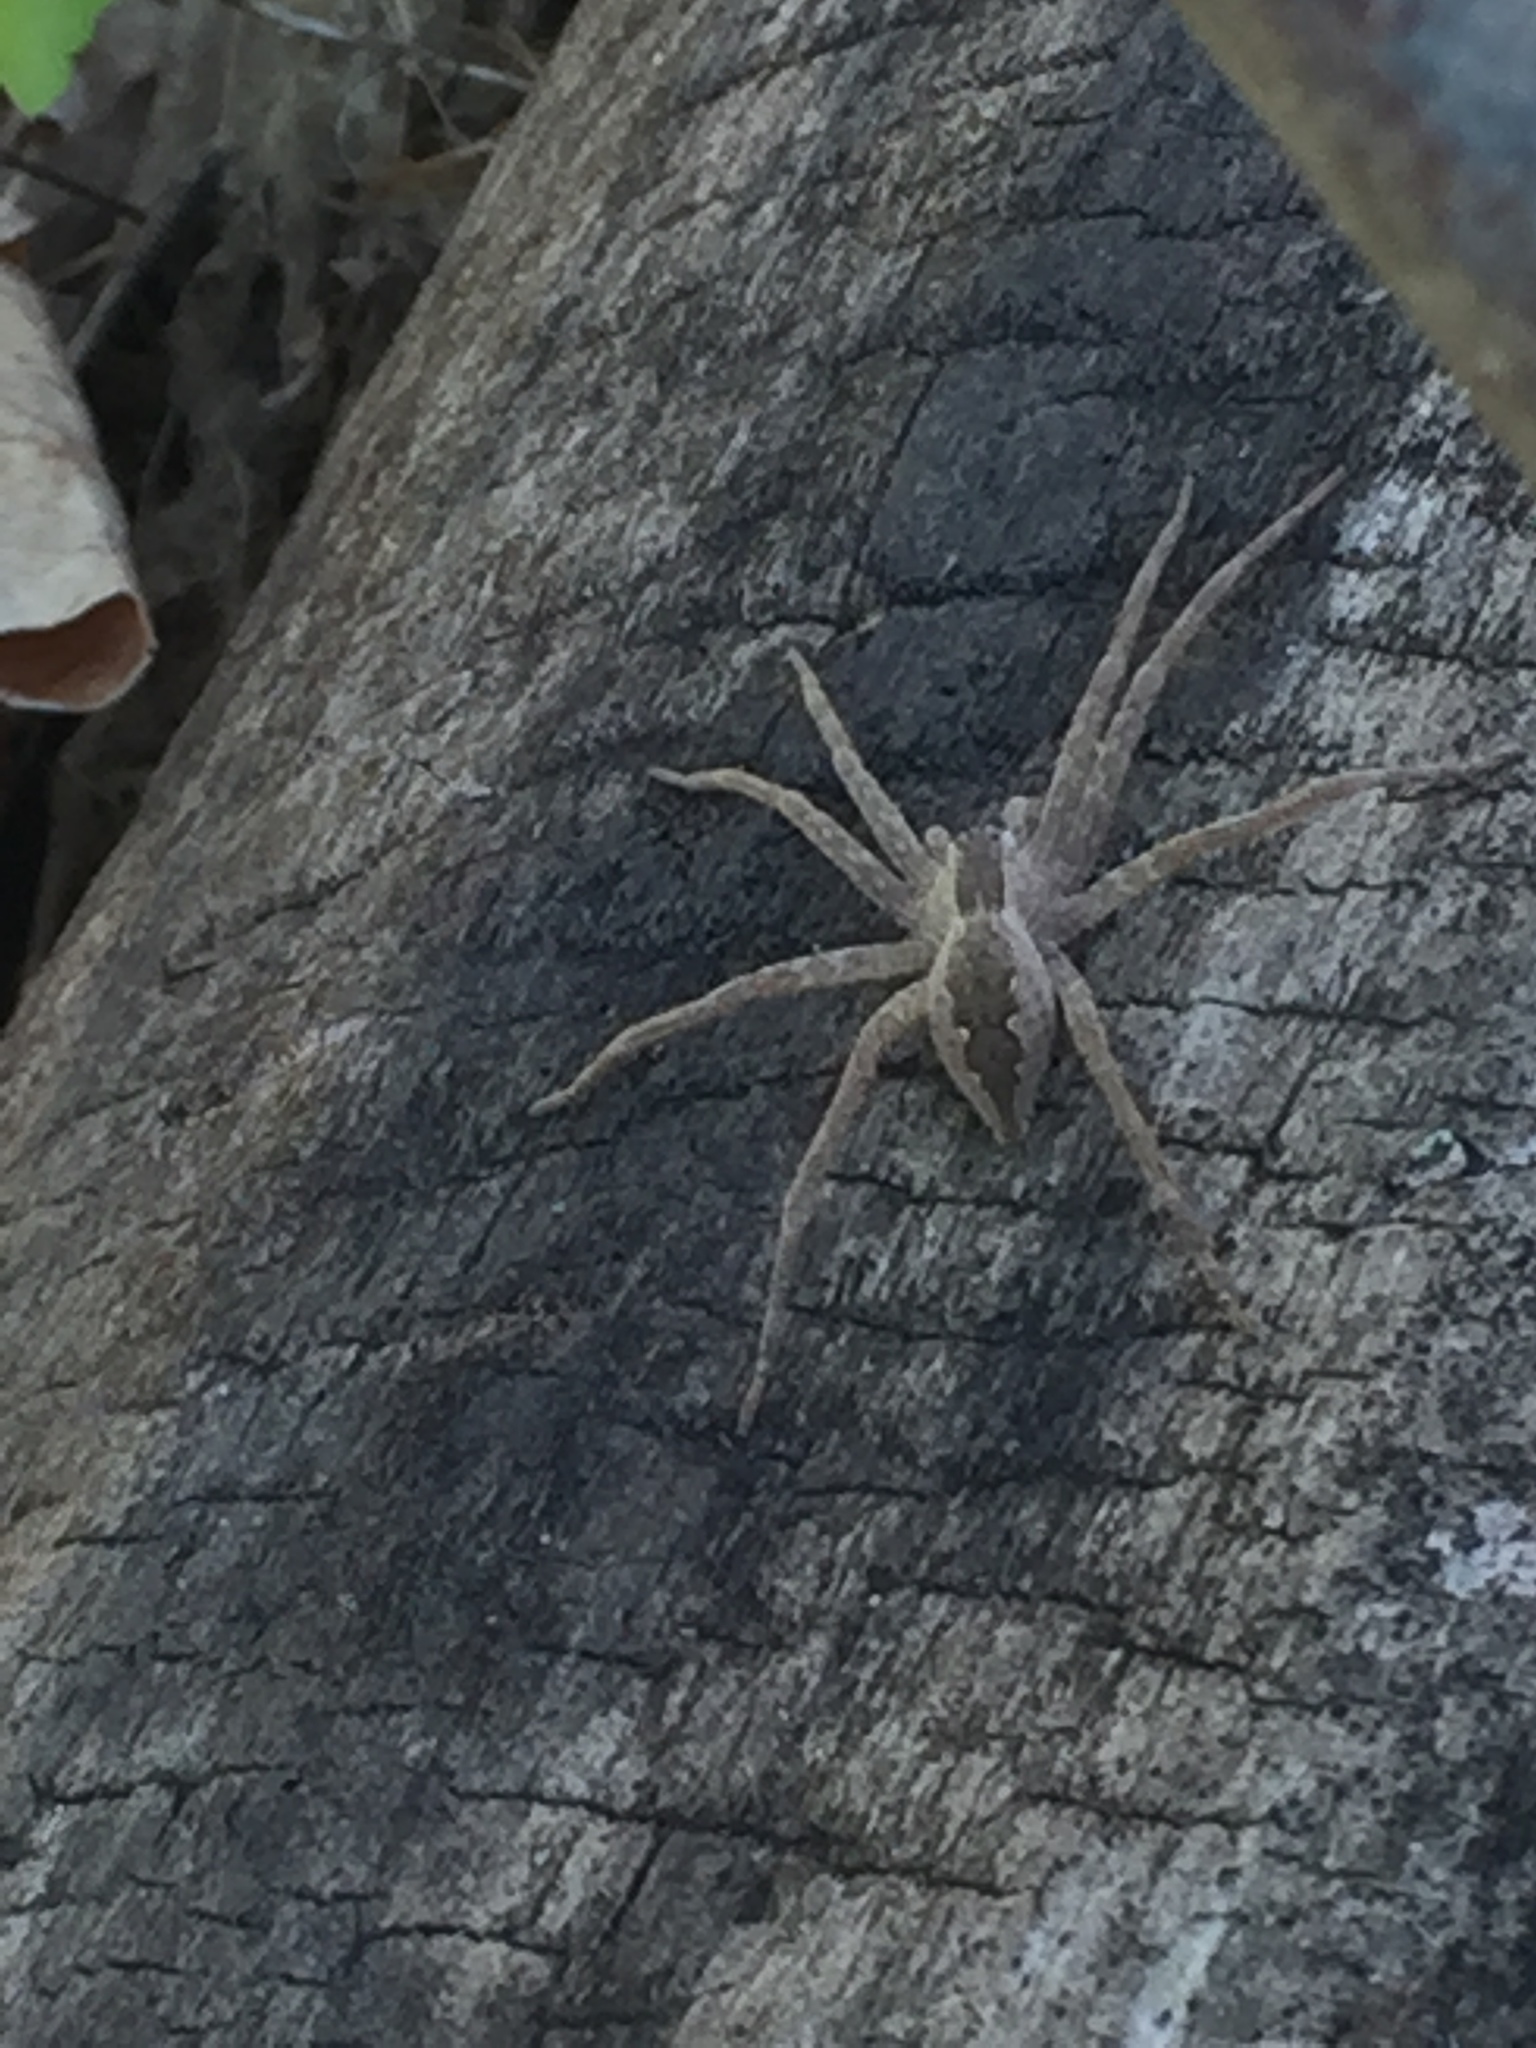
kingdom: Animalia
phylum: Arthropoda
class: Arachnida
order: Araneae
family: Pisauridae
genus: Pisaurina
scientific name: Pisaurina mira
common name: American nursery web spider
